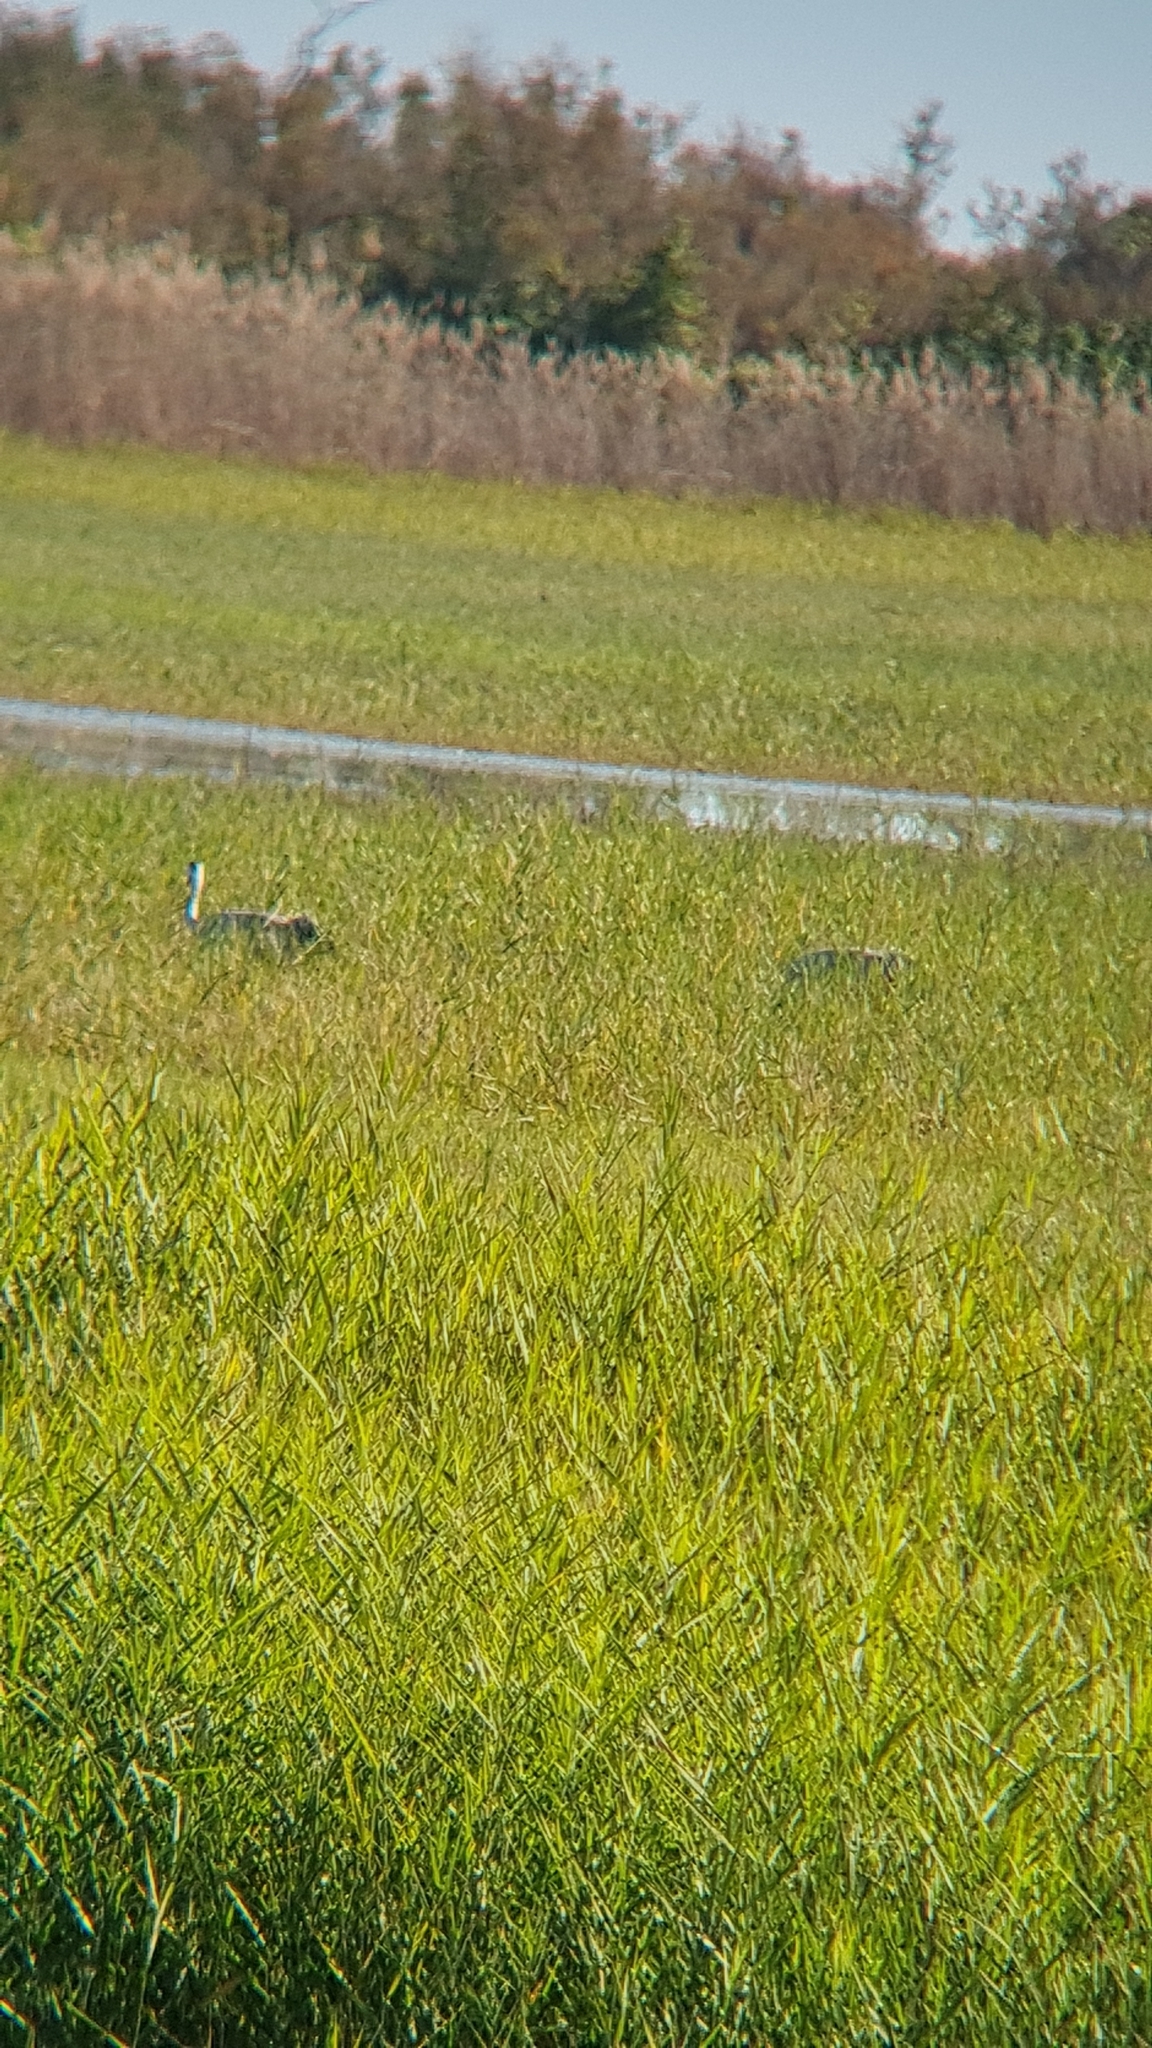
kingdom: Animalia
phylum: Chordata
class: Aves
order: Gruiformes
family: Gruidae
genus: Grus
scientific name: Grus grus
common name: Common crane
